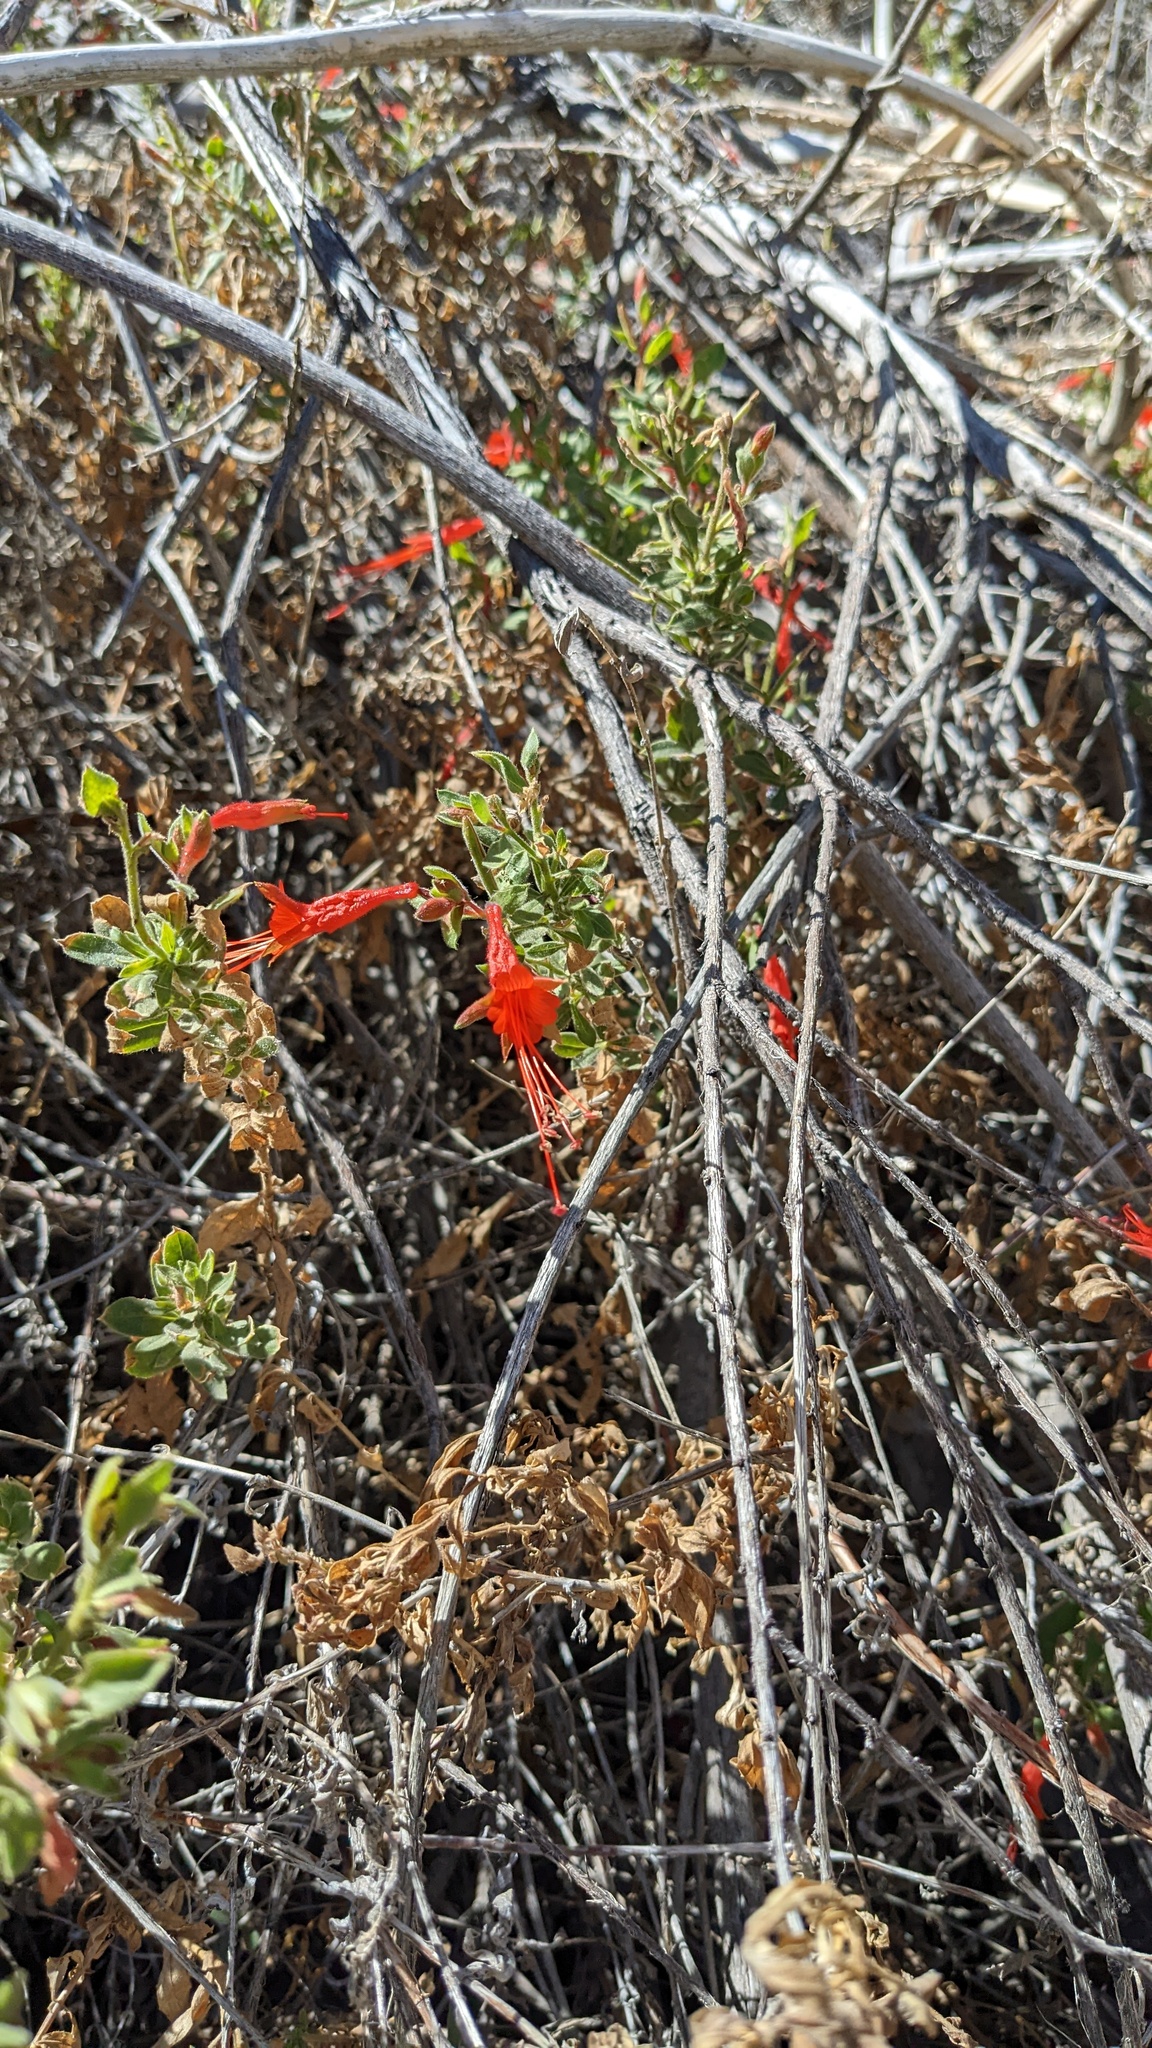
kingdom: Plantae
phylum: Tracheophyta
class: Magnoliopsida
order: Myrtales
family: Onagraceae
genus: Epilobium
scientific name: Epilobium canum
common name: California-fuchsia
